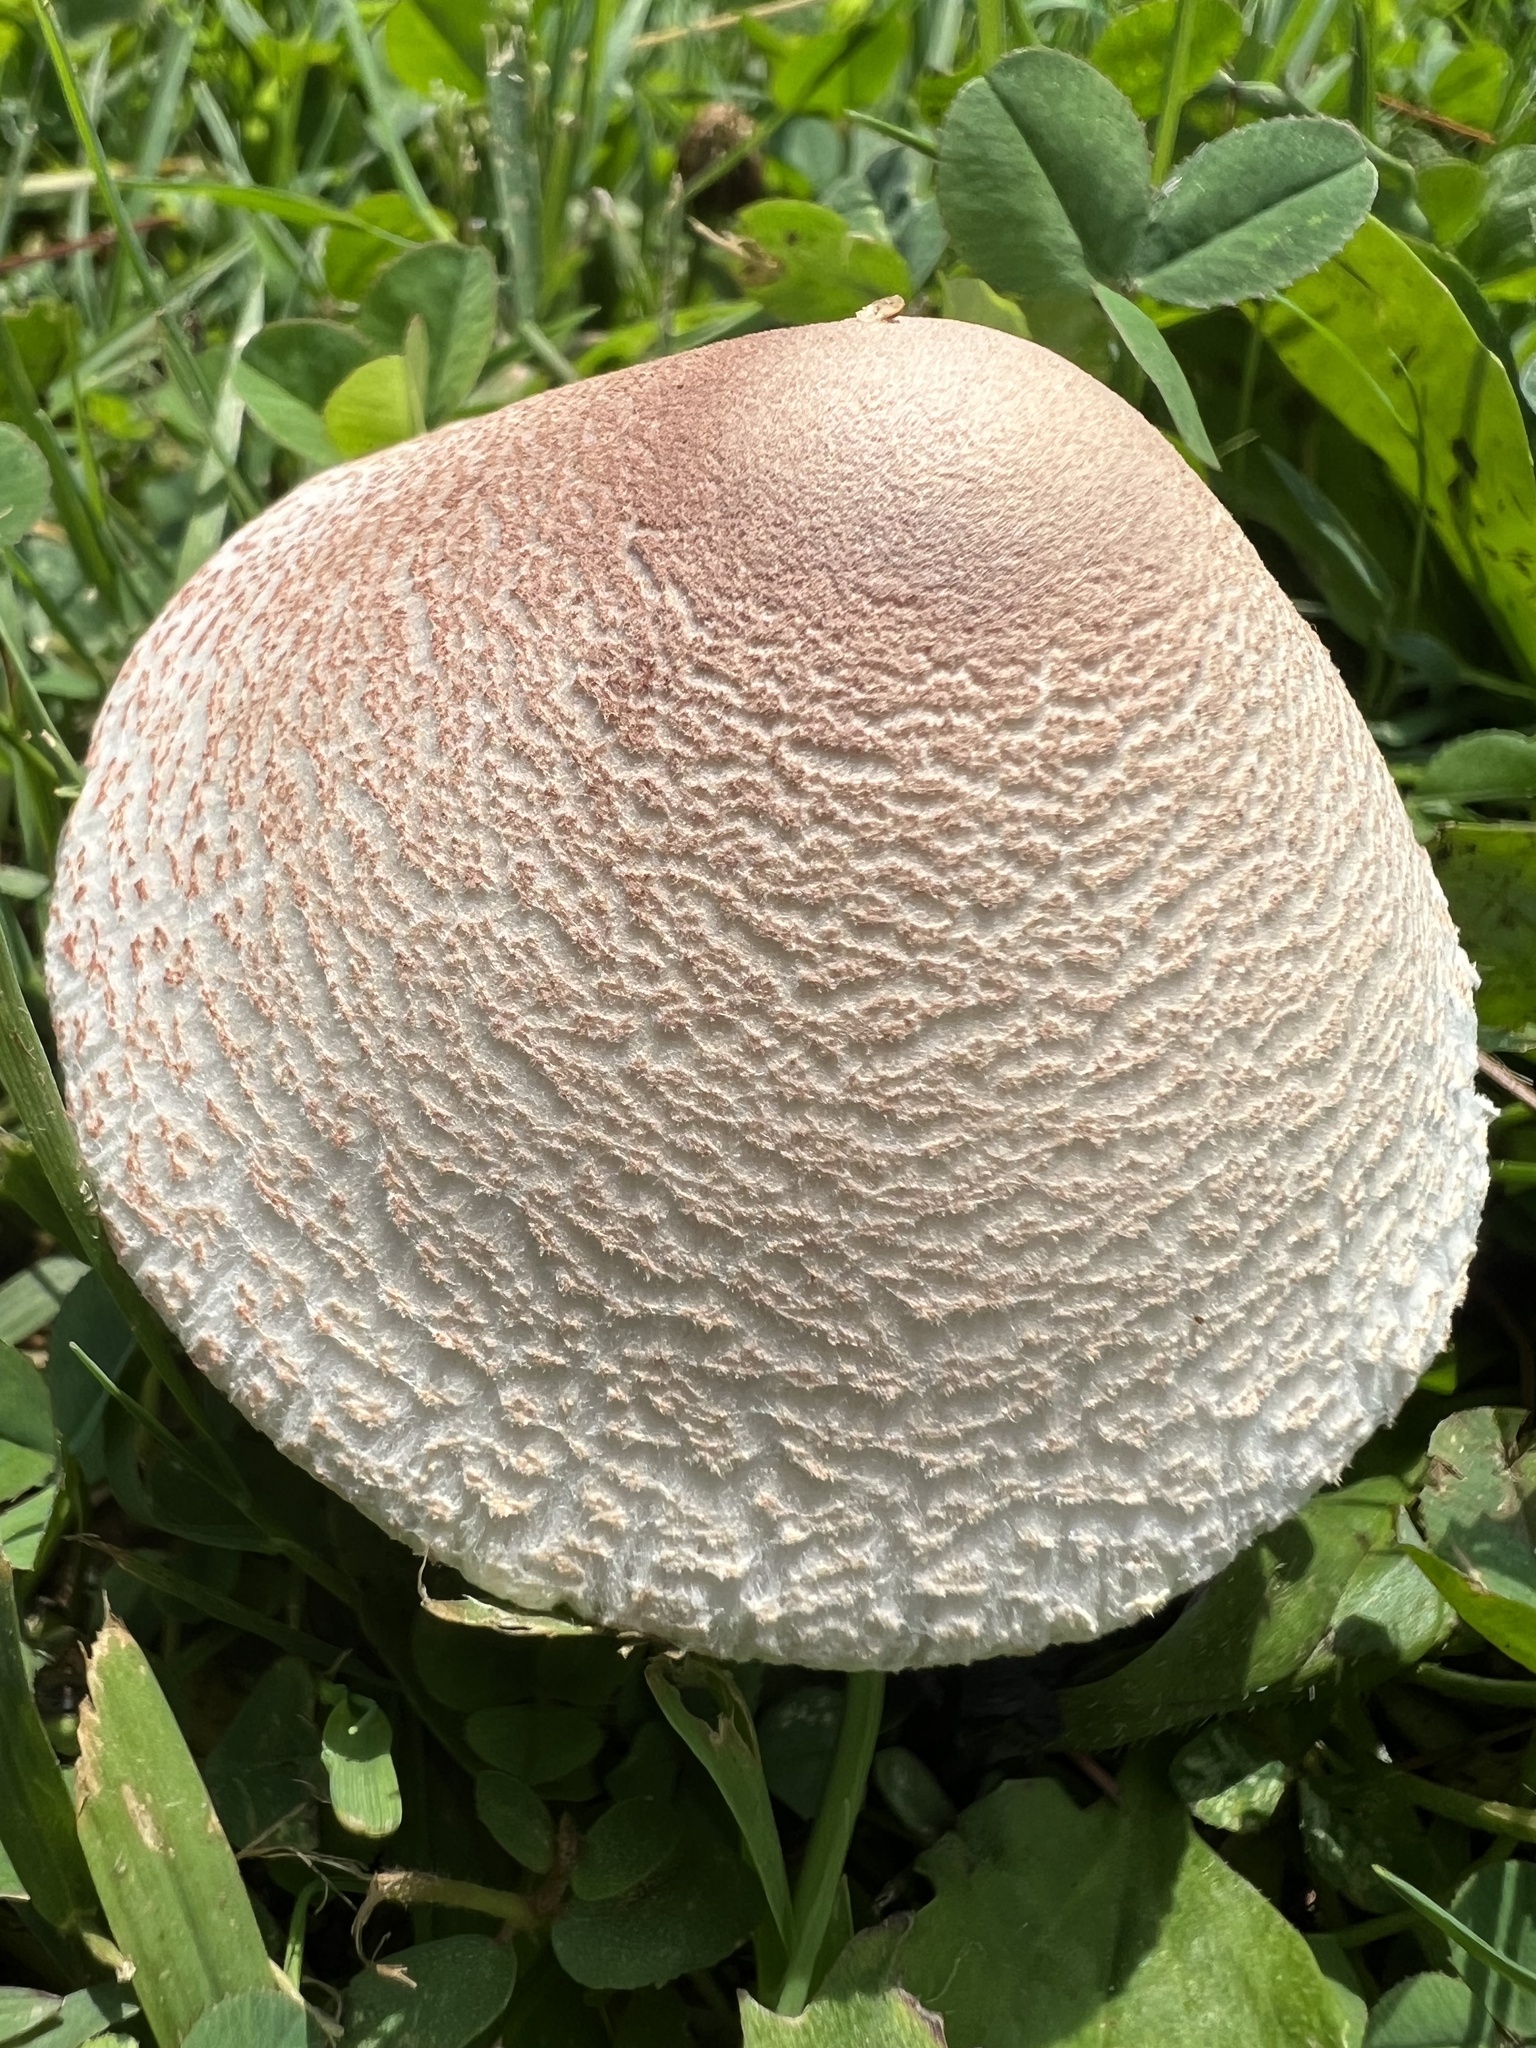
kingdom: Fungi
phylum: Basidiomycota
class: Agaricomycetes
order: Agaricales
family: Agaricaceae
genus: Leucoagaricus
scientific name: Leucoagaricus americanus
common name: Reddening lepiota
